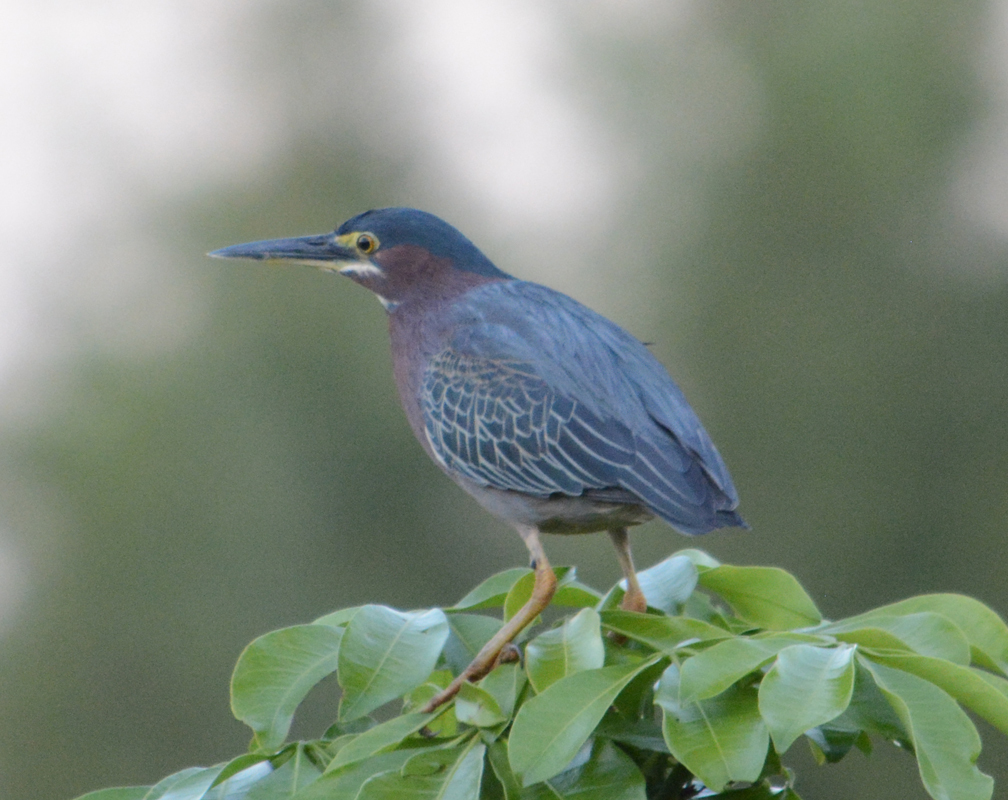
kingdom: Animalia
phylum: Chordata
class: Aves
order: Pelecaniformes
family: Ardeidae
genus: Butorides
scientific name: Butorides virescens
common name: Green heron
